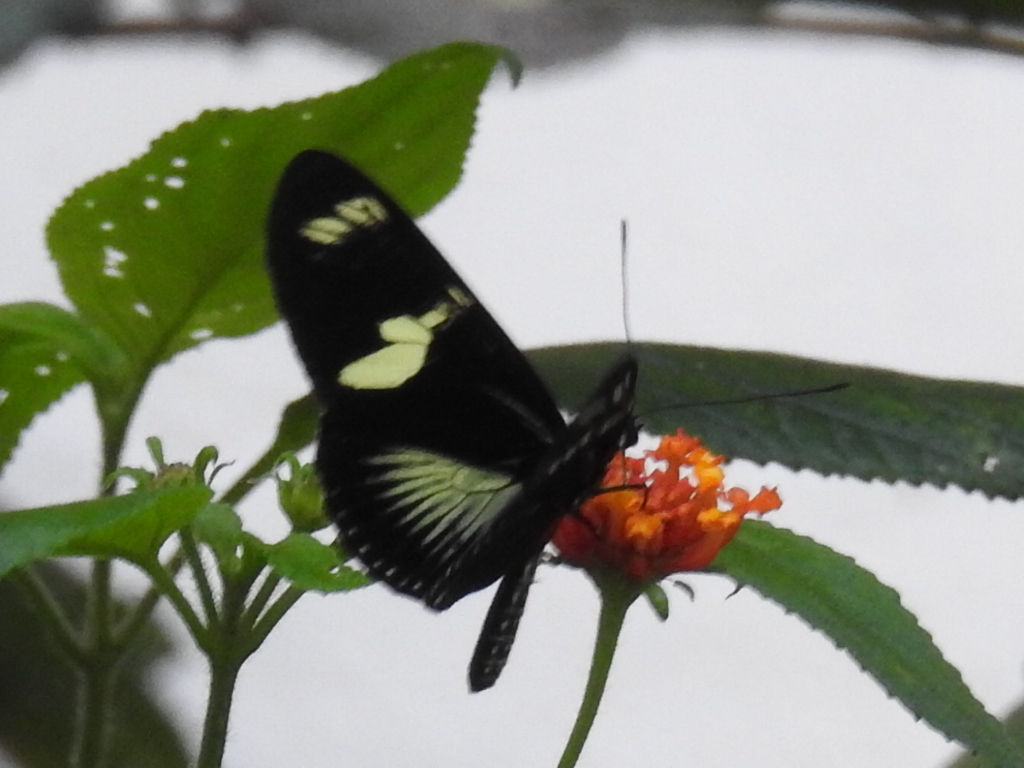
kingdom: Animalia
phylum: Arthropoda
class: Insecta
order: Lepidoptera
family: Nymphalidae
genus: Heliconius
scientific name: Heliconius doris
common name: Doris longwing
